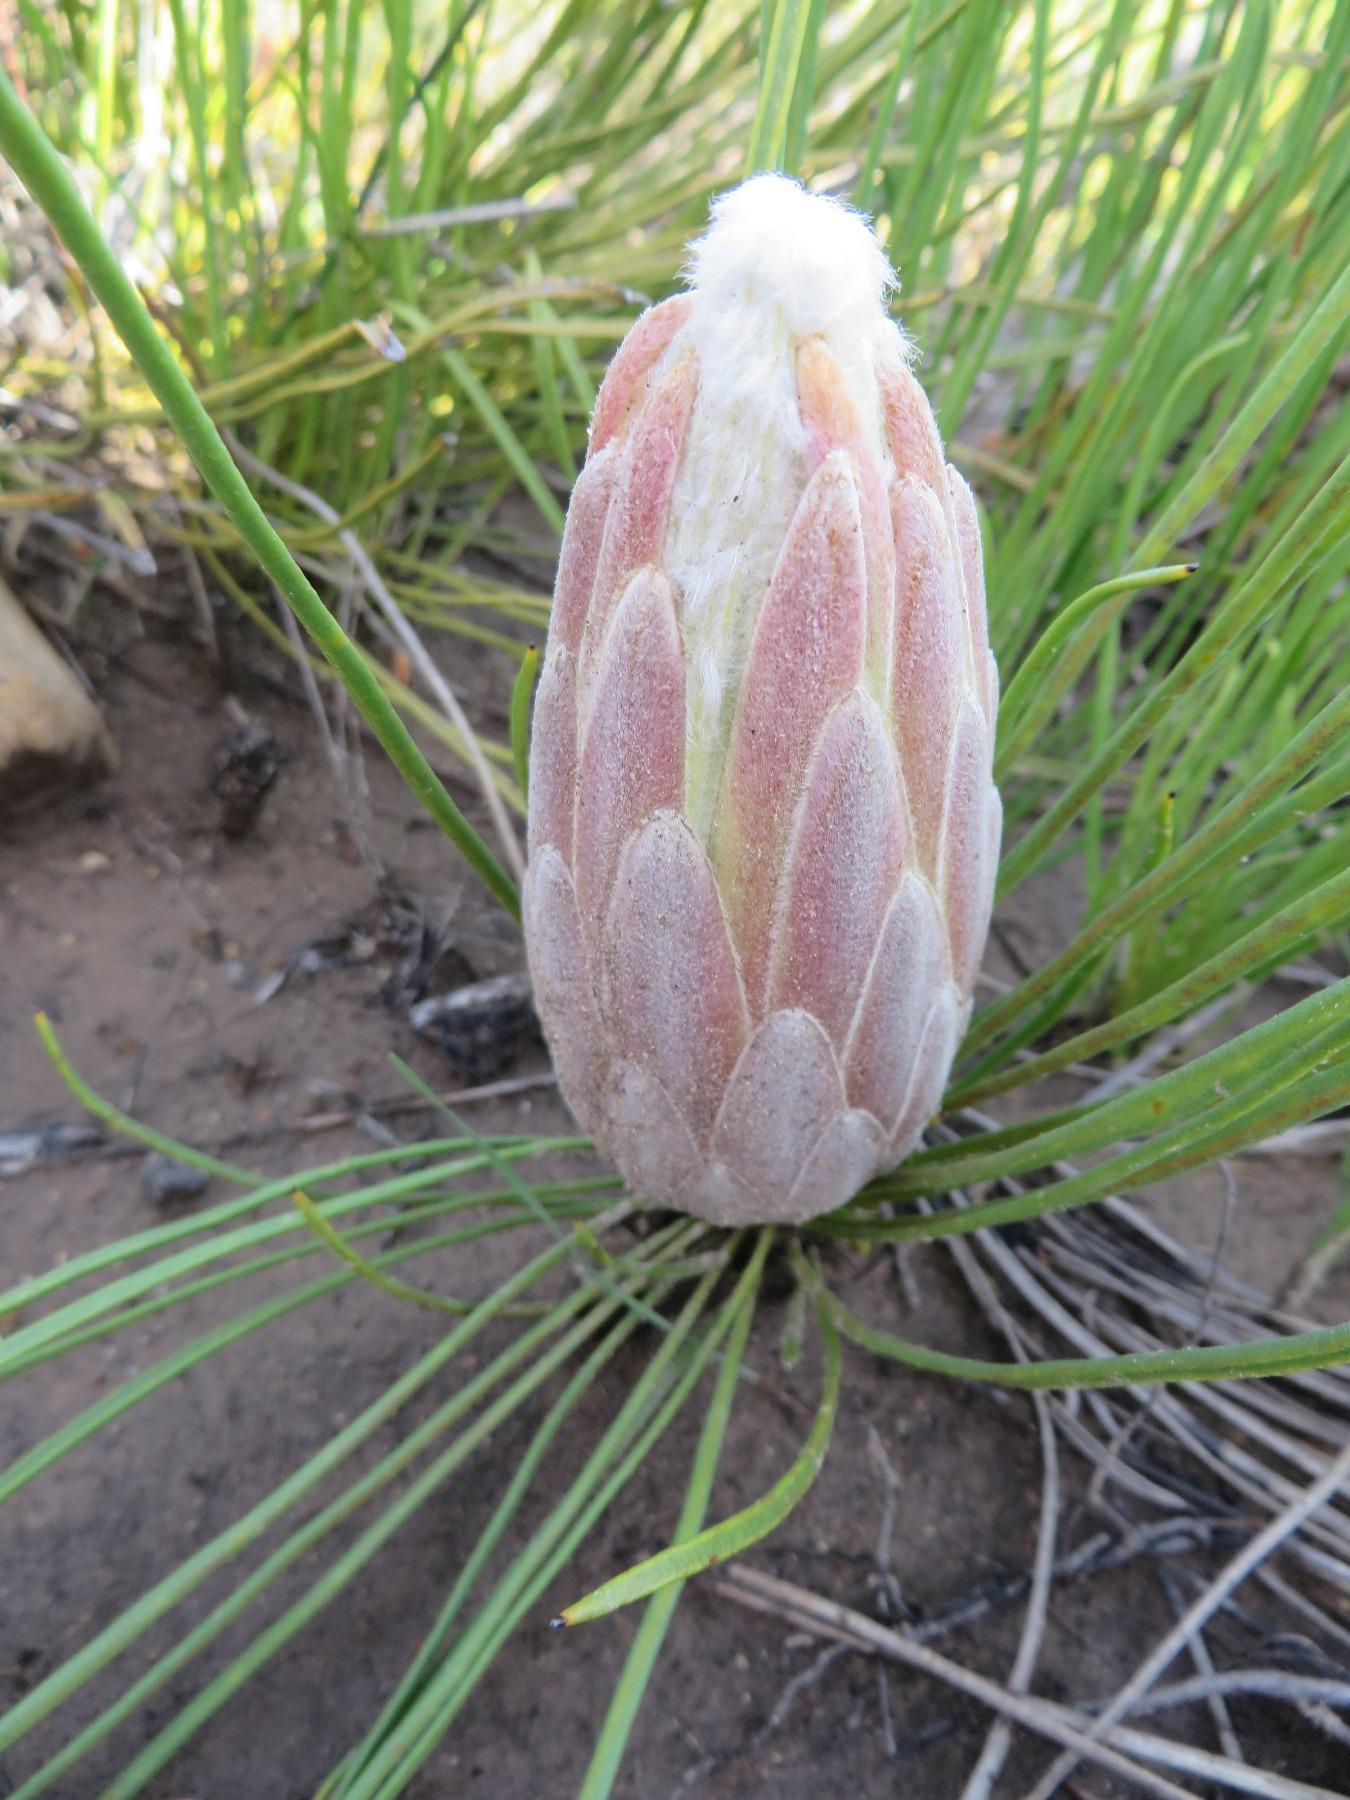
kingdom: Plantae
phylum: Tracheophyta
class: Magnoliopsida
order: Proteales
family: Proteaceae
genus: Protea
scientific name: Protea scorzonerifolia
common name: Channel-leaf sugarbush
